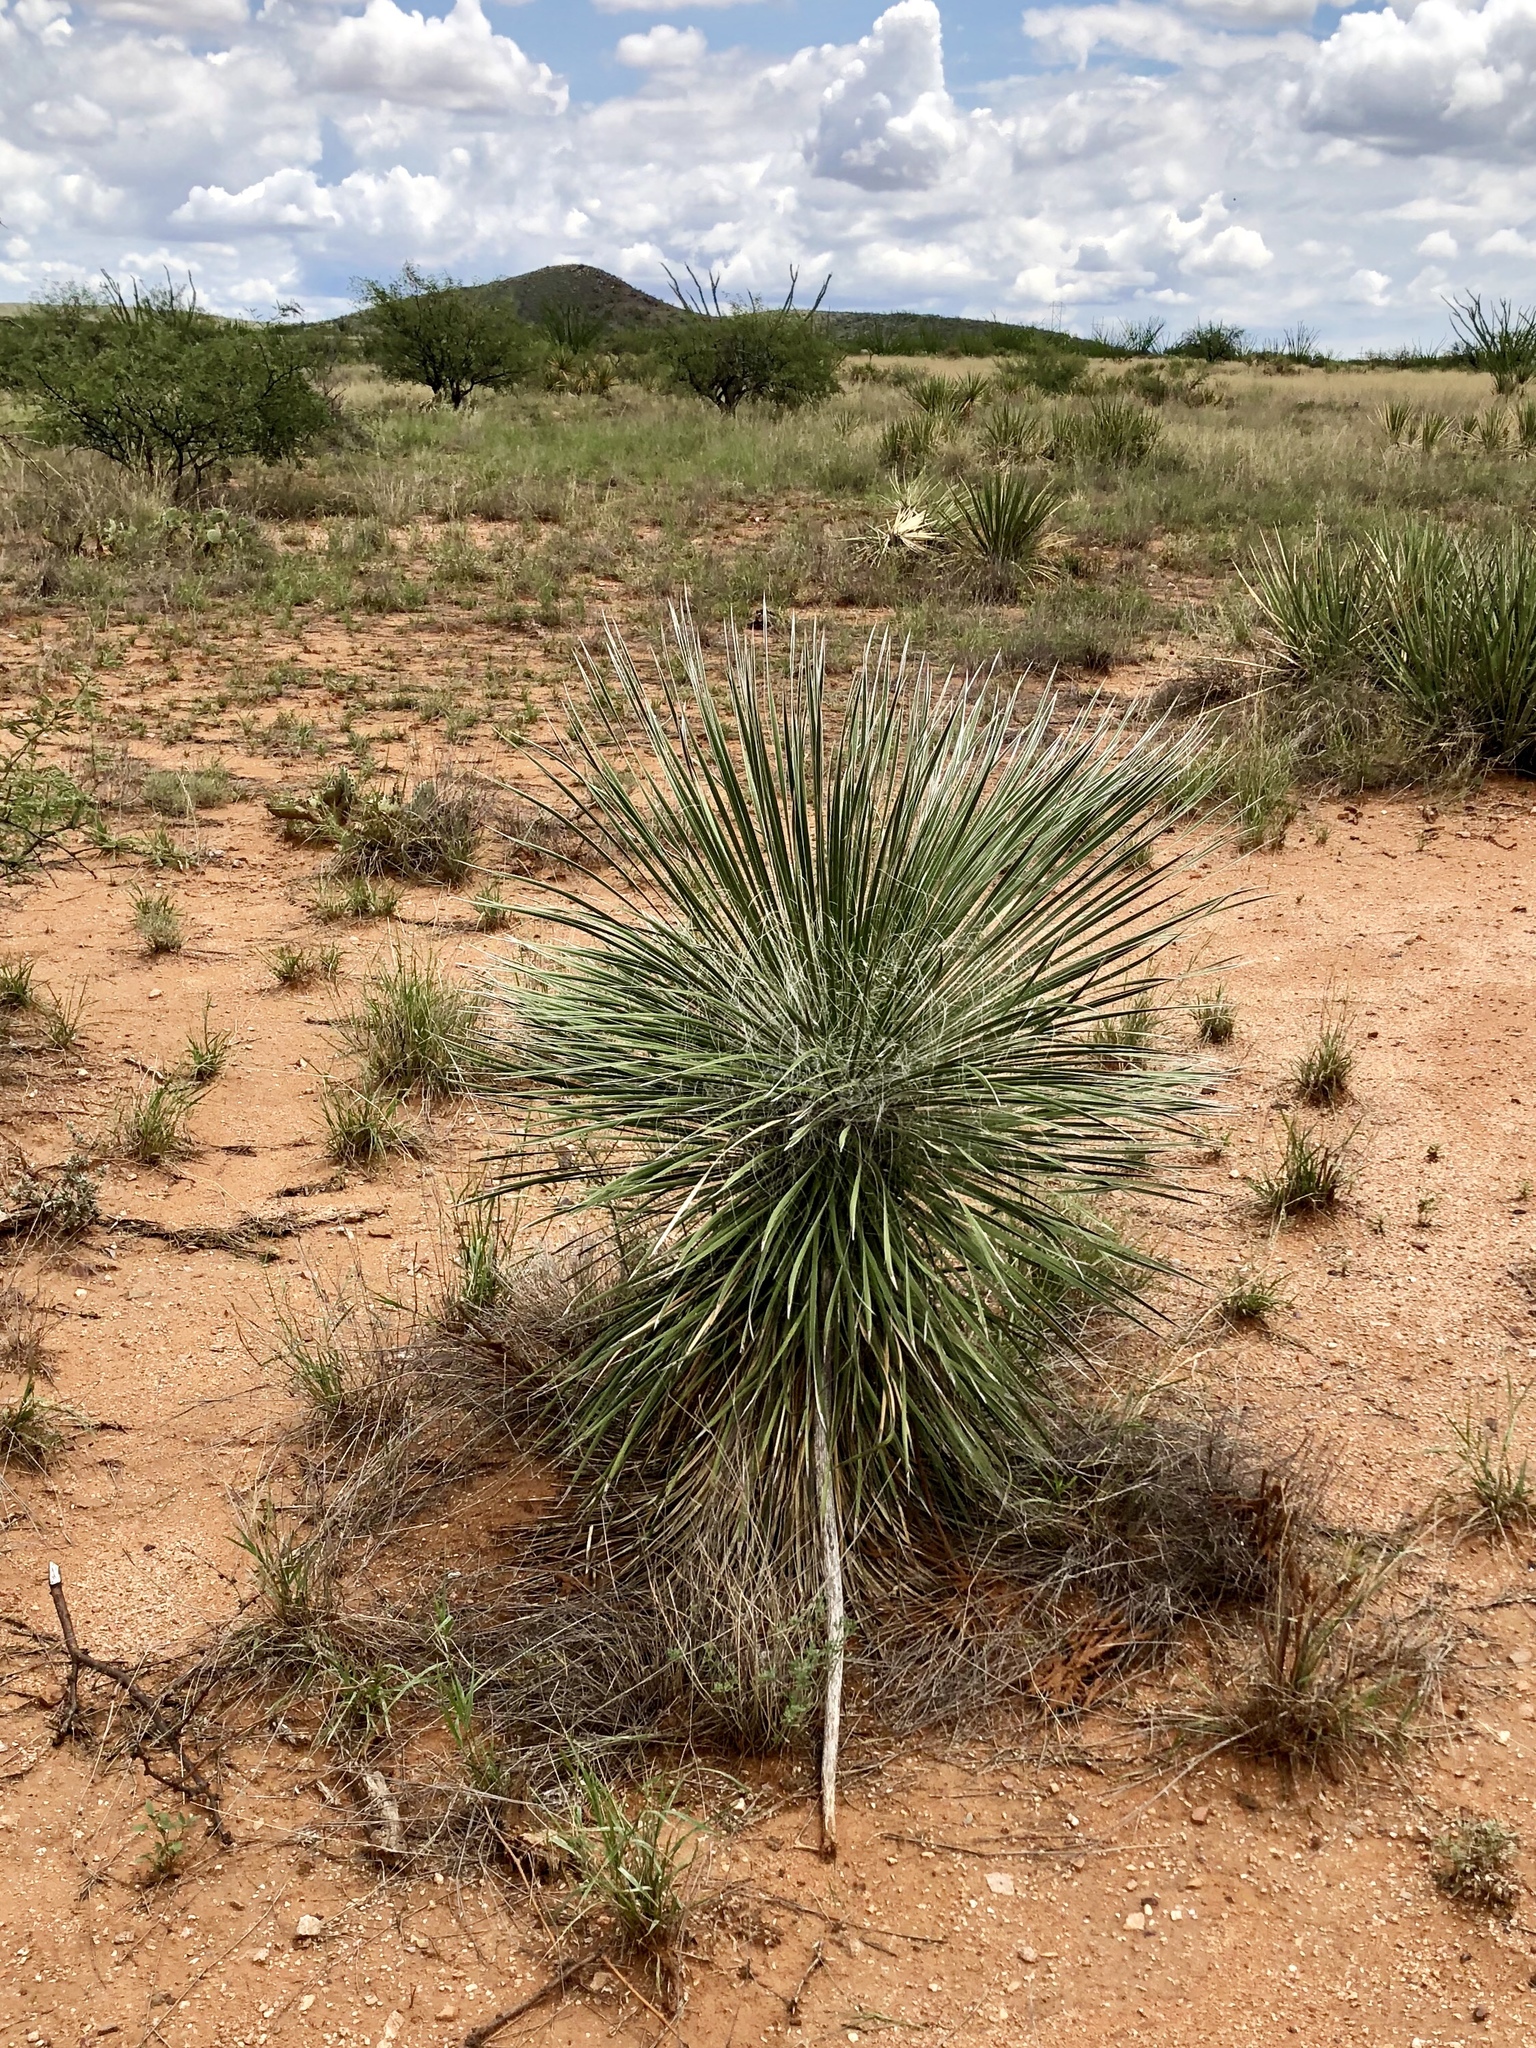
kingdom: Plantae
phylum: Tracheophyta
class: Liliopsida
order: Asparagales
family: Asparagaceae
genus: Yucca
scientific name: Yucca elata
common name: Palmella
